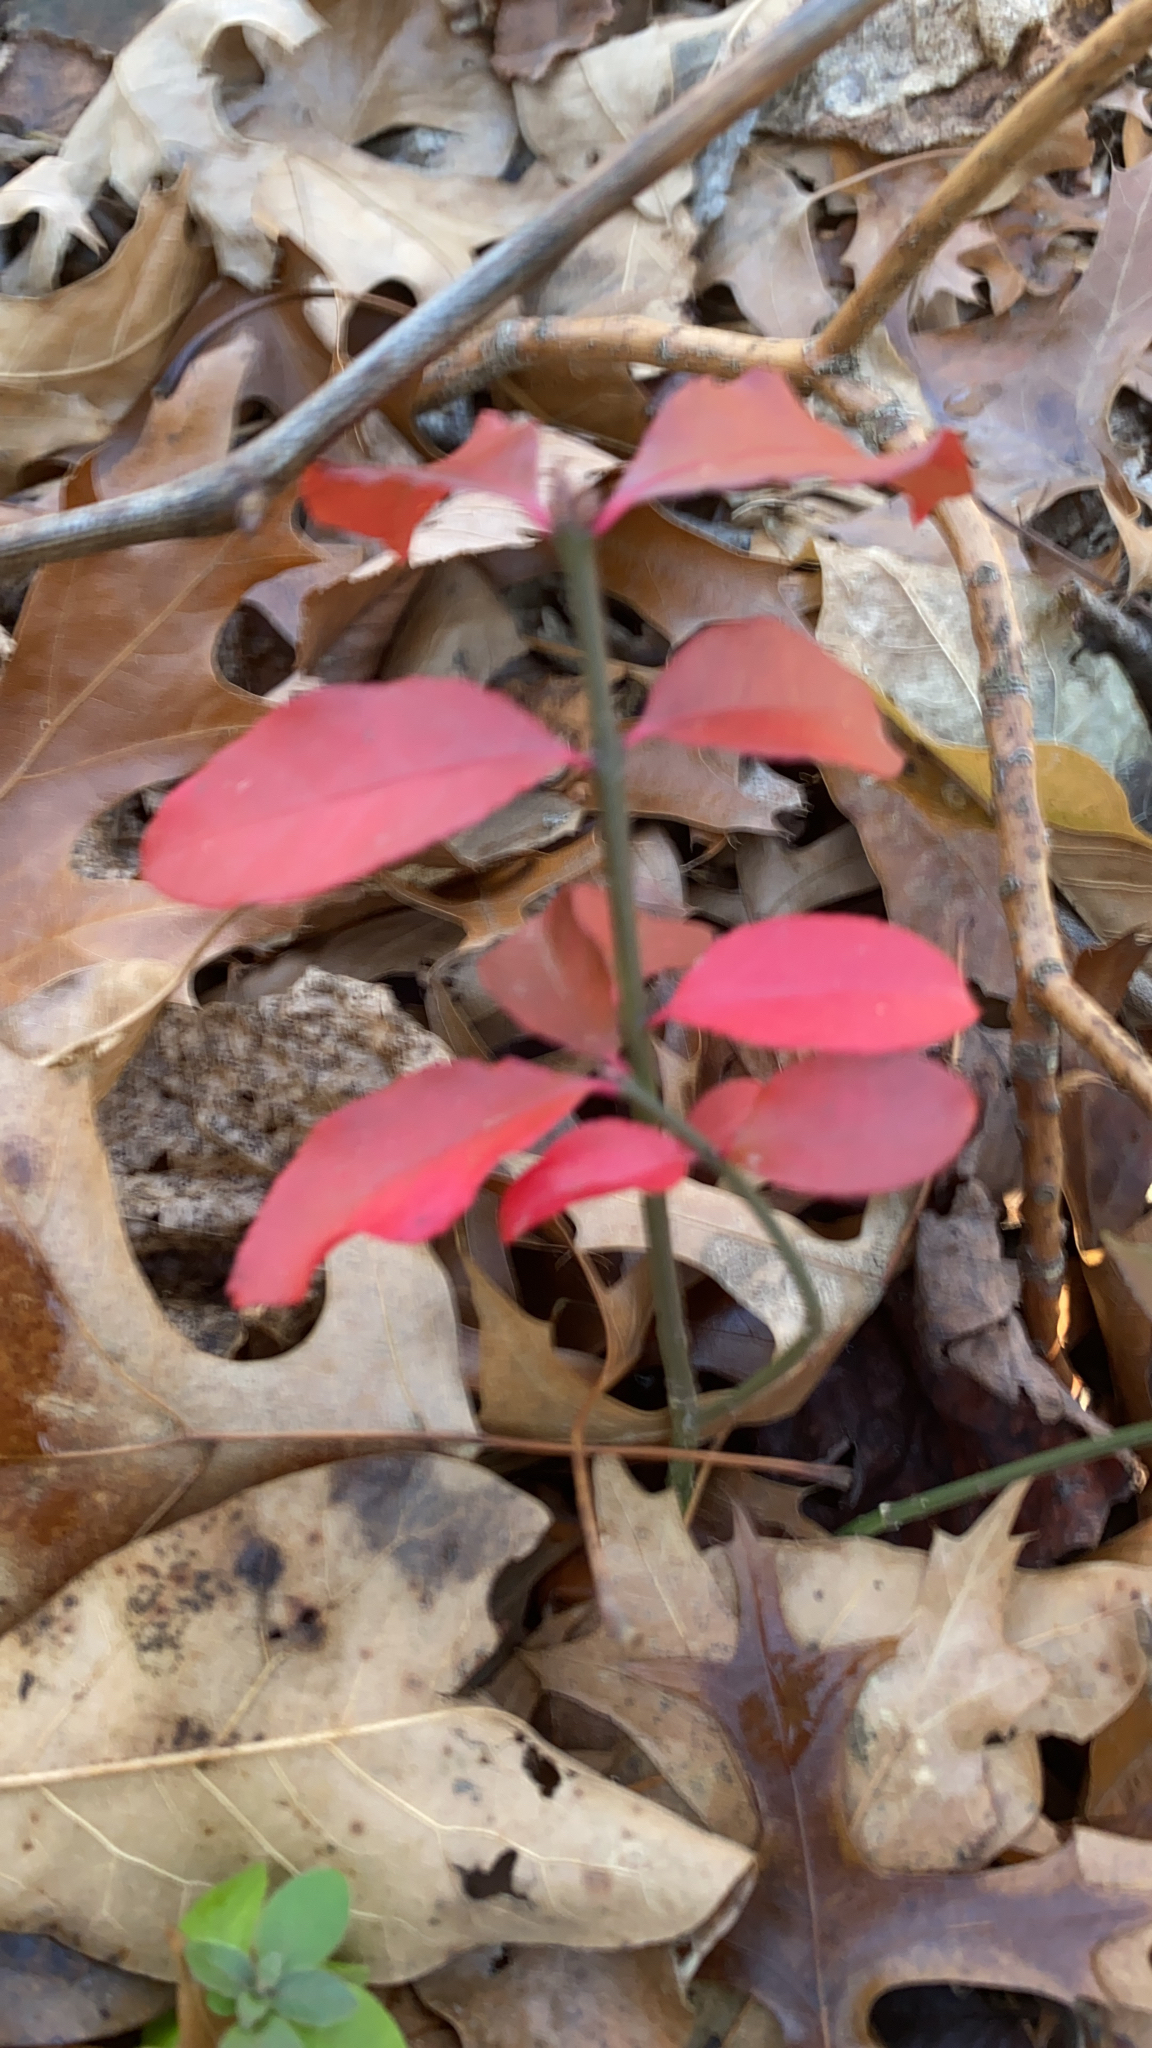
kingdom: Plantae
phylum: Tracheophyta
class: Magnoliopsida
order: Celastrales
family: Celastraceae
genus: Euonymus
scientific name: Euonymus alatus
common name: Winged euonymus
